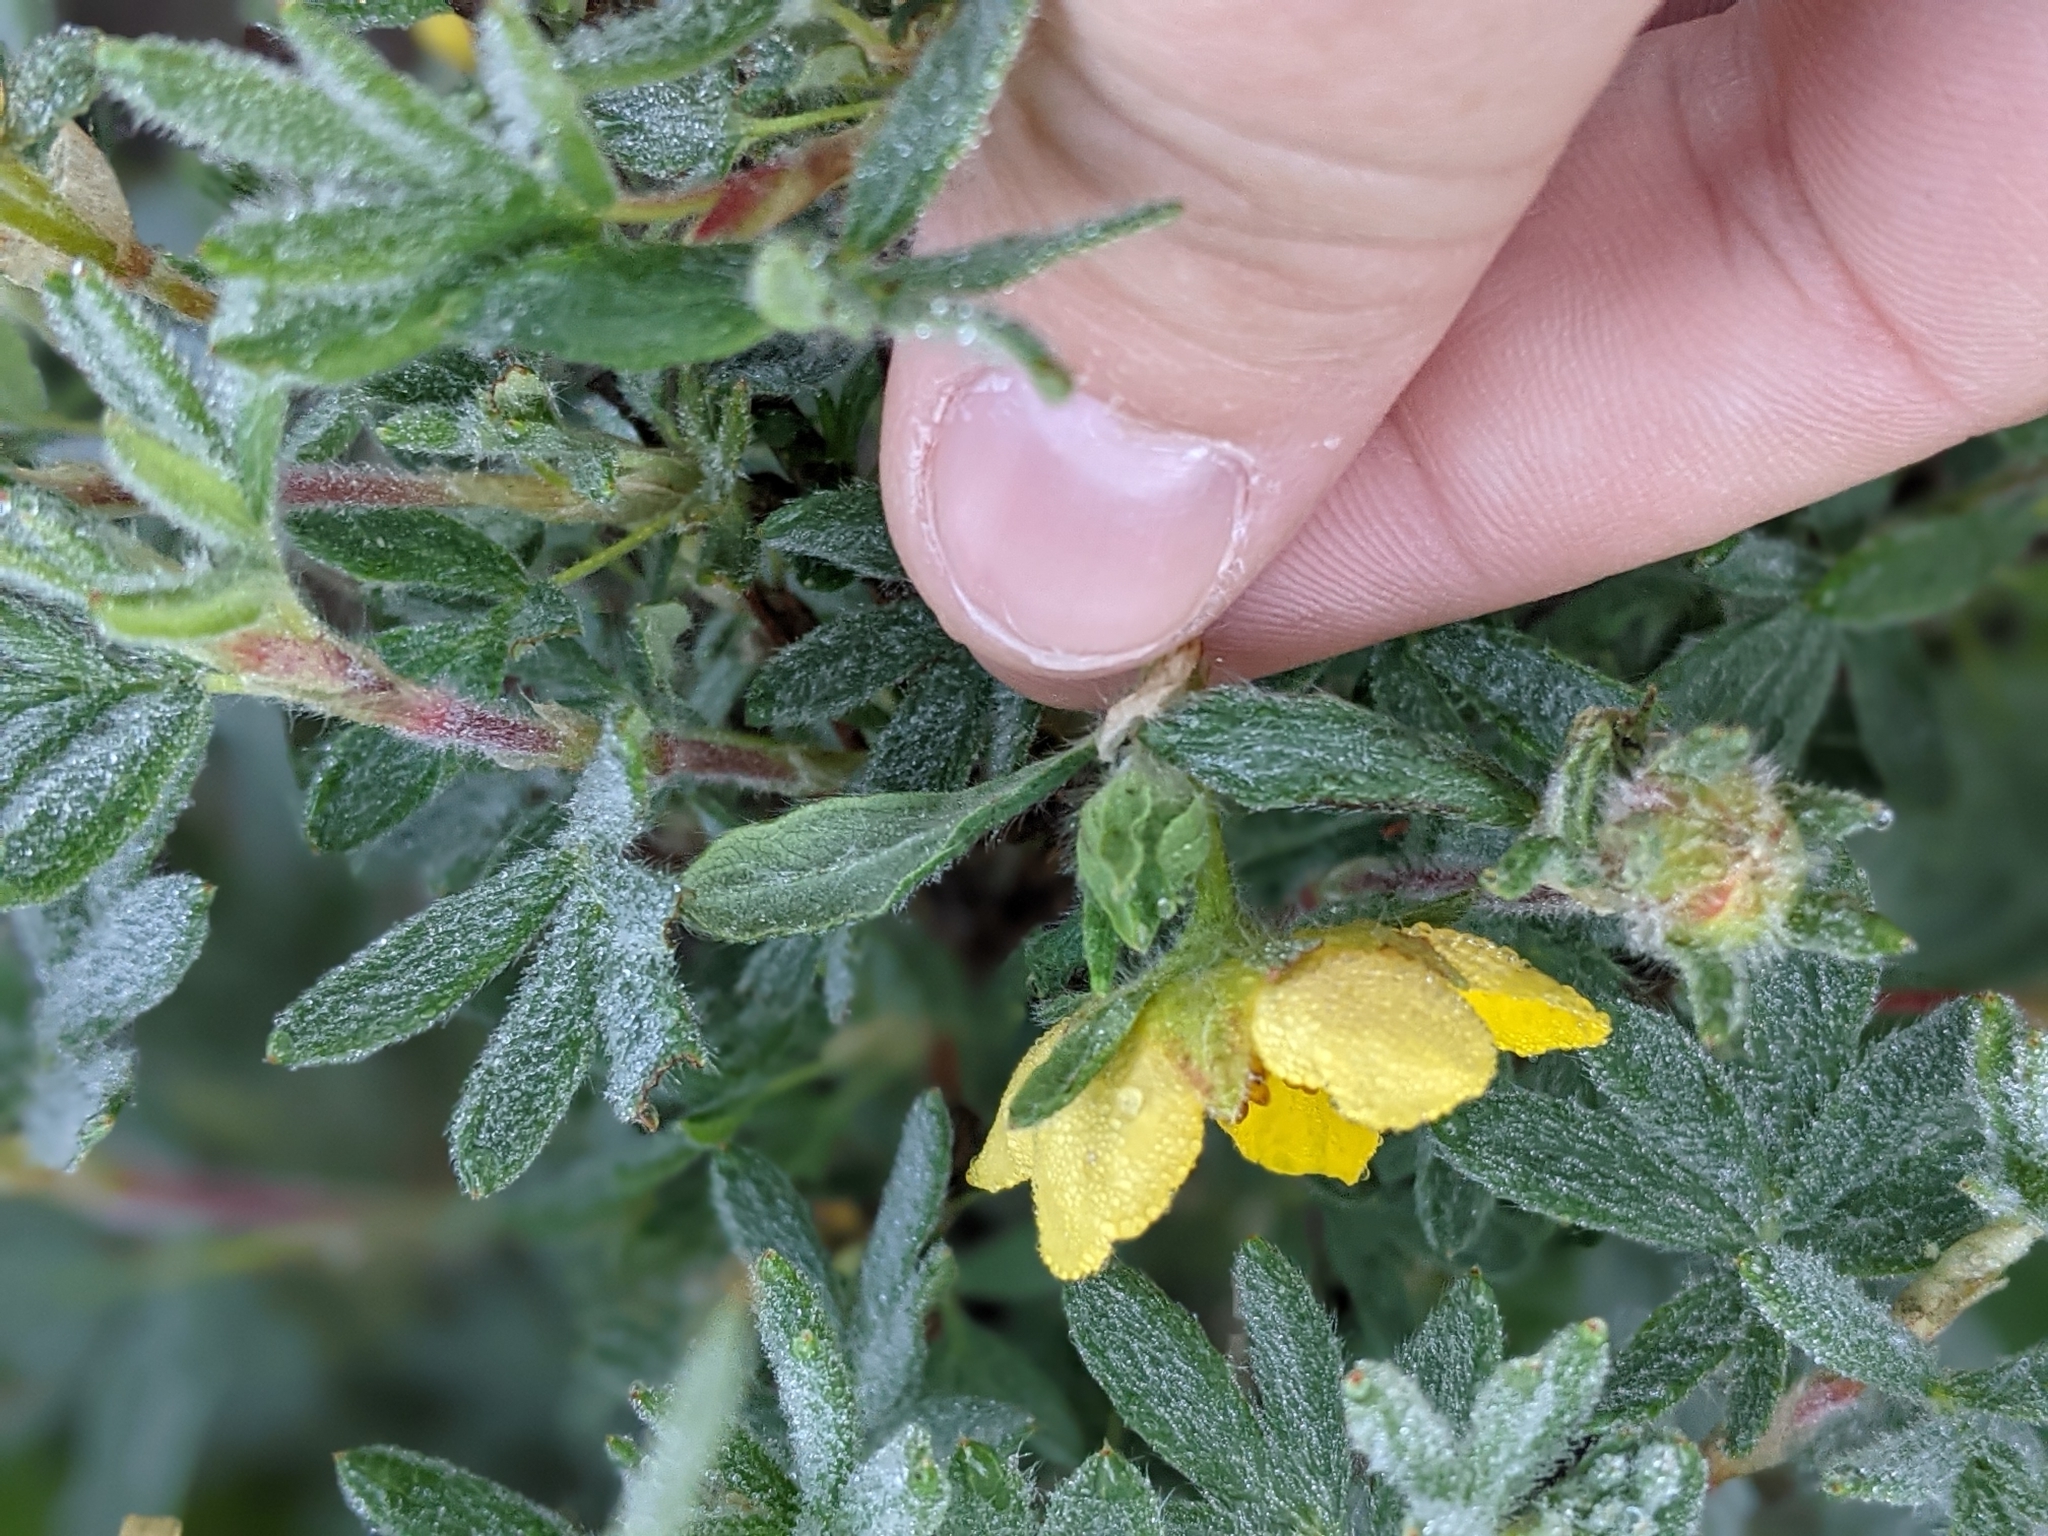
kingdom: Plantae
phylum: Tracheophyta
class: Magnoliopsida
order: Rosales
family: Rosaceae
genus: Dasiphora
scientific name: Dasiphora fruticosa
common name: Shrubby cinquefoil
